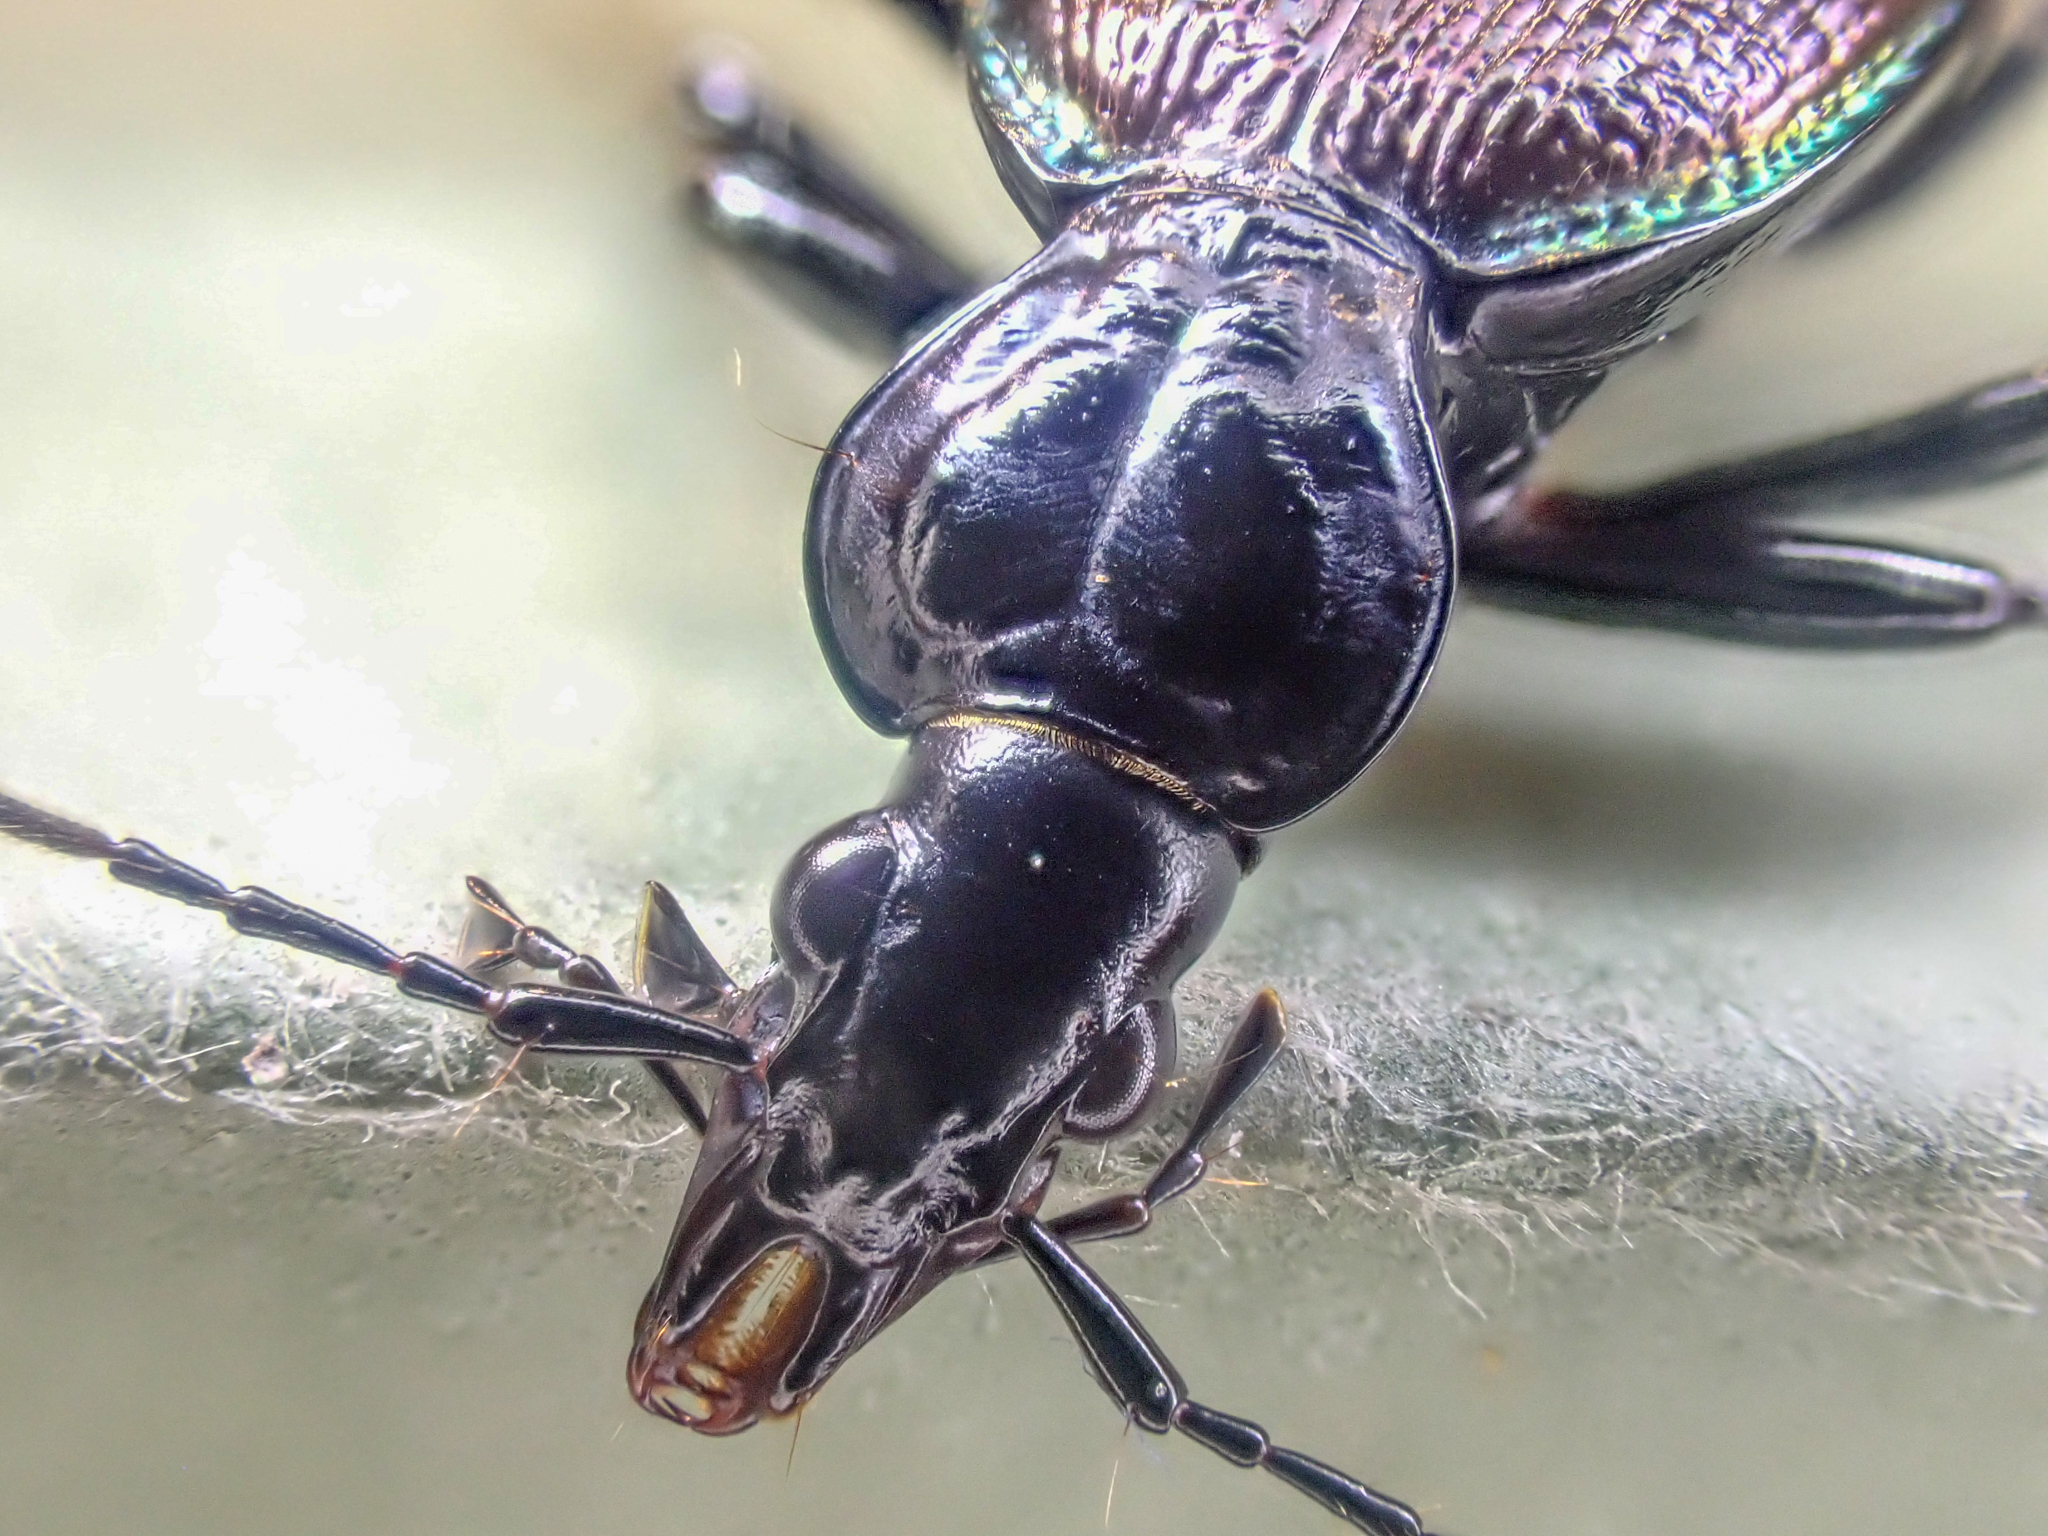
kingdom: Animalia
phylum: Arthropoda
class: Insecta
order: Coleoptera
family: Carabidae
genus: Scaphinotus
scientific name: Scaphinotus marginatus
